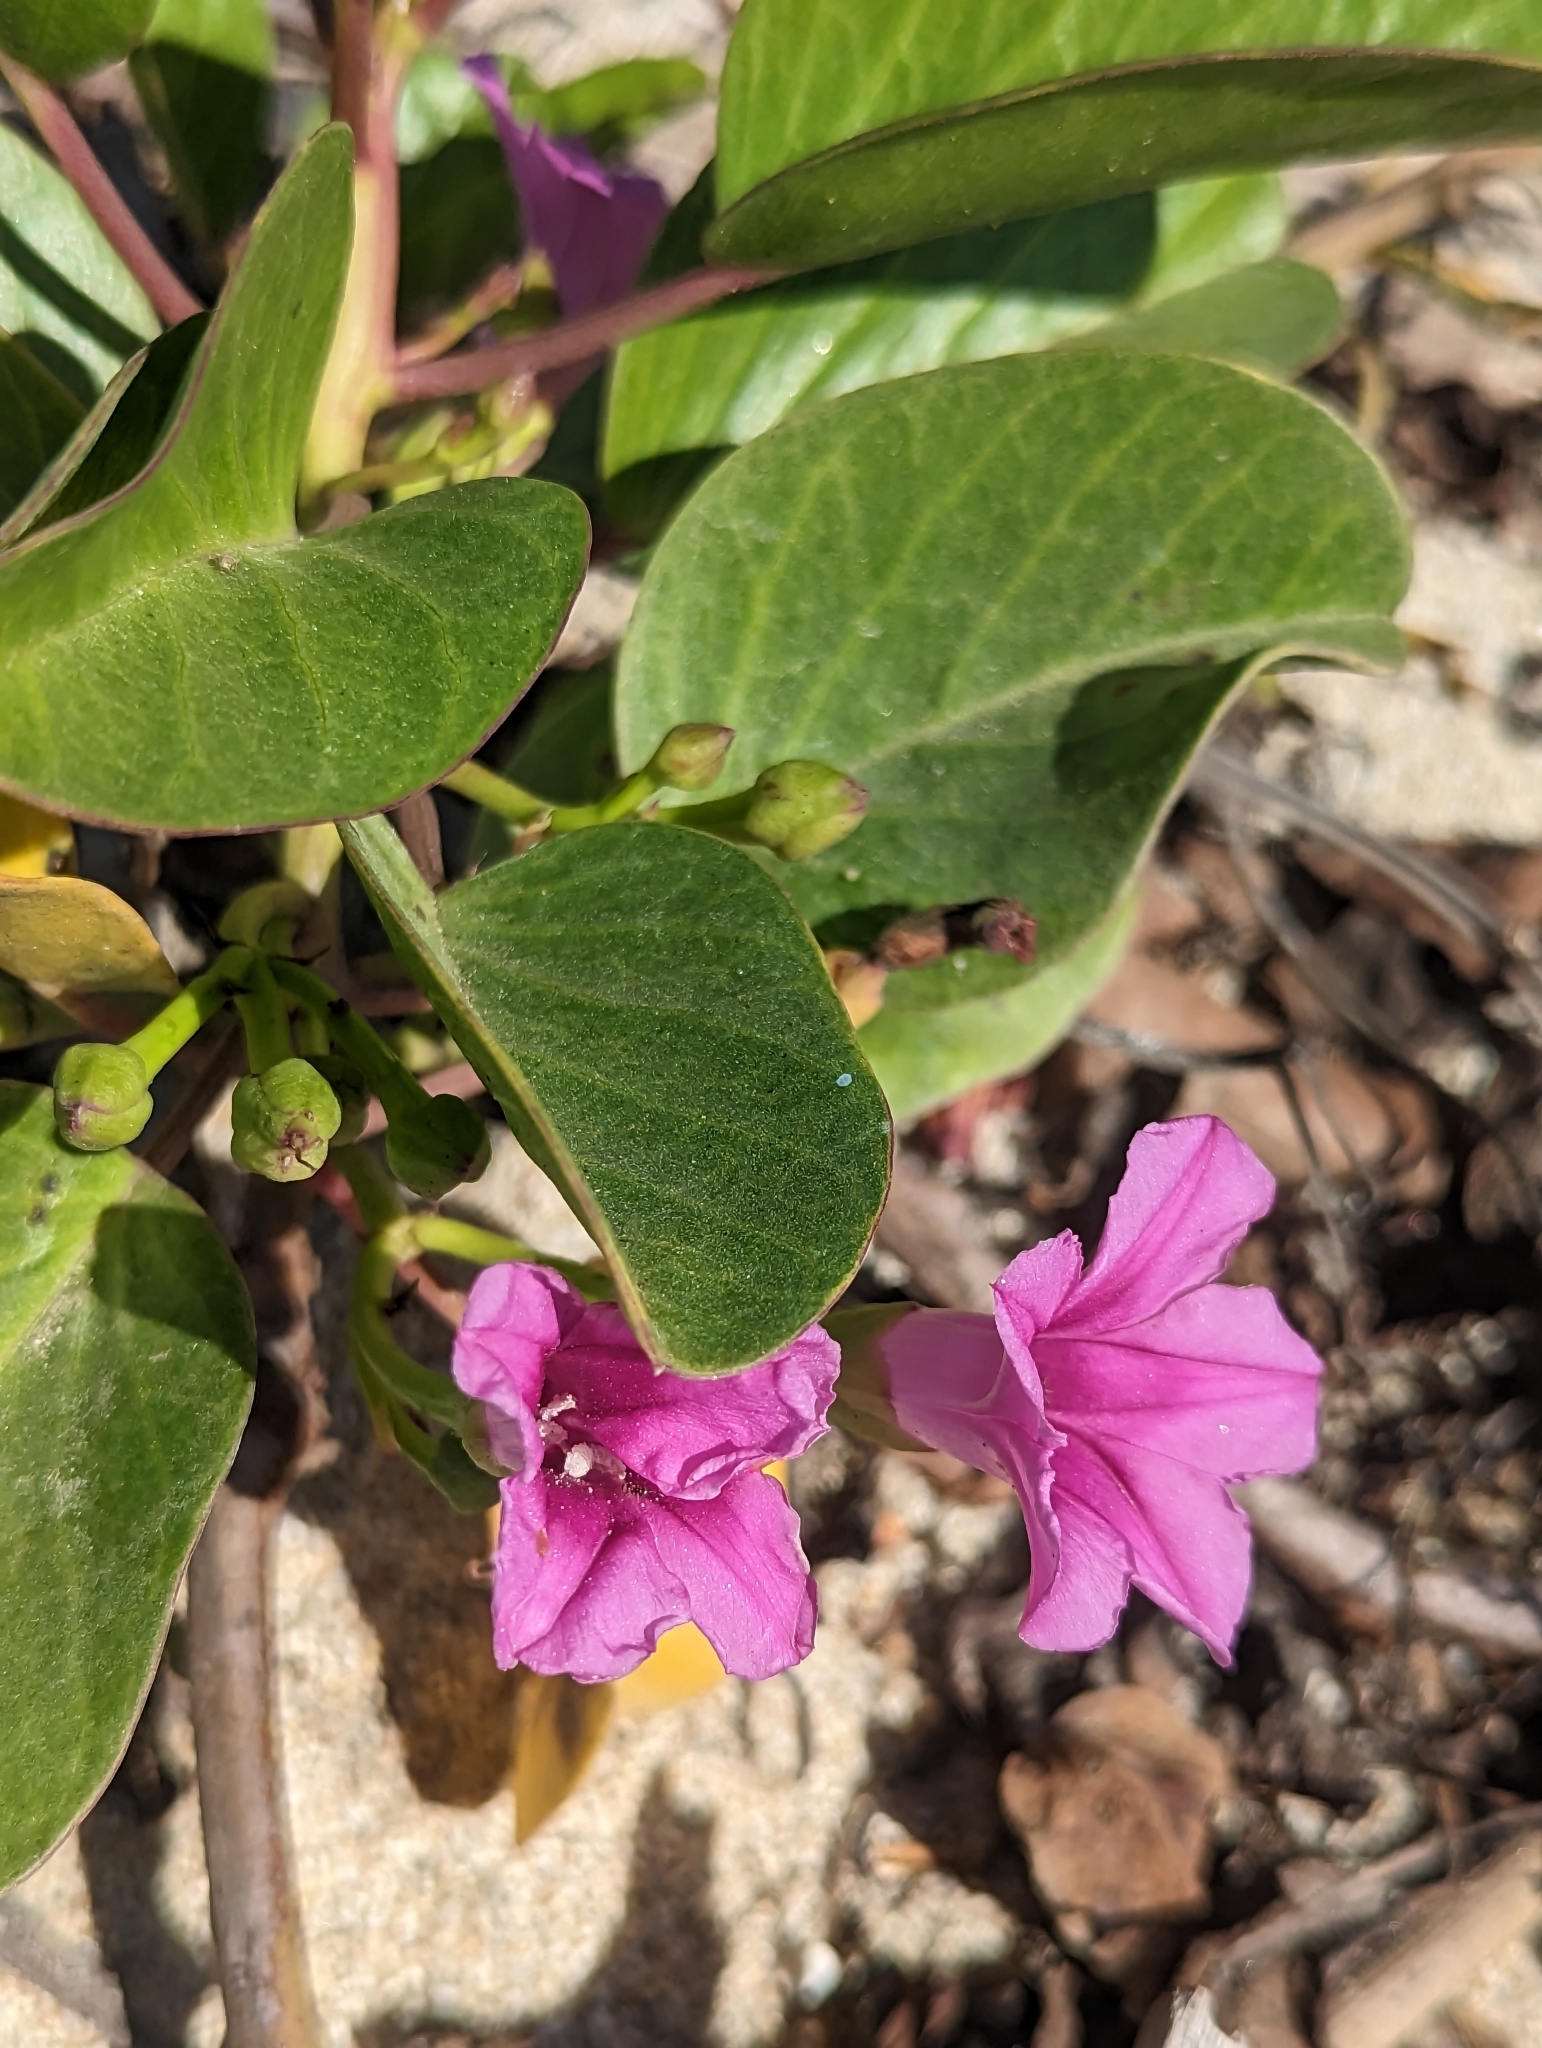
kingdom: Plantae
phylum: Tracheophyta
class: Magnoliopsida
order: Solanales
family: Convolvulaceae
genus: Ipomoea
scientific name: Ipomoea pes-caprae
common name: Beach morning glory
